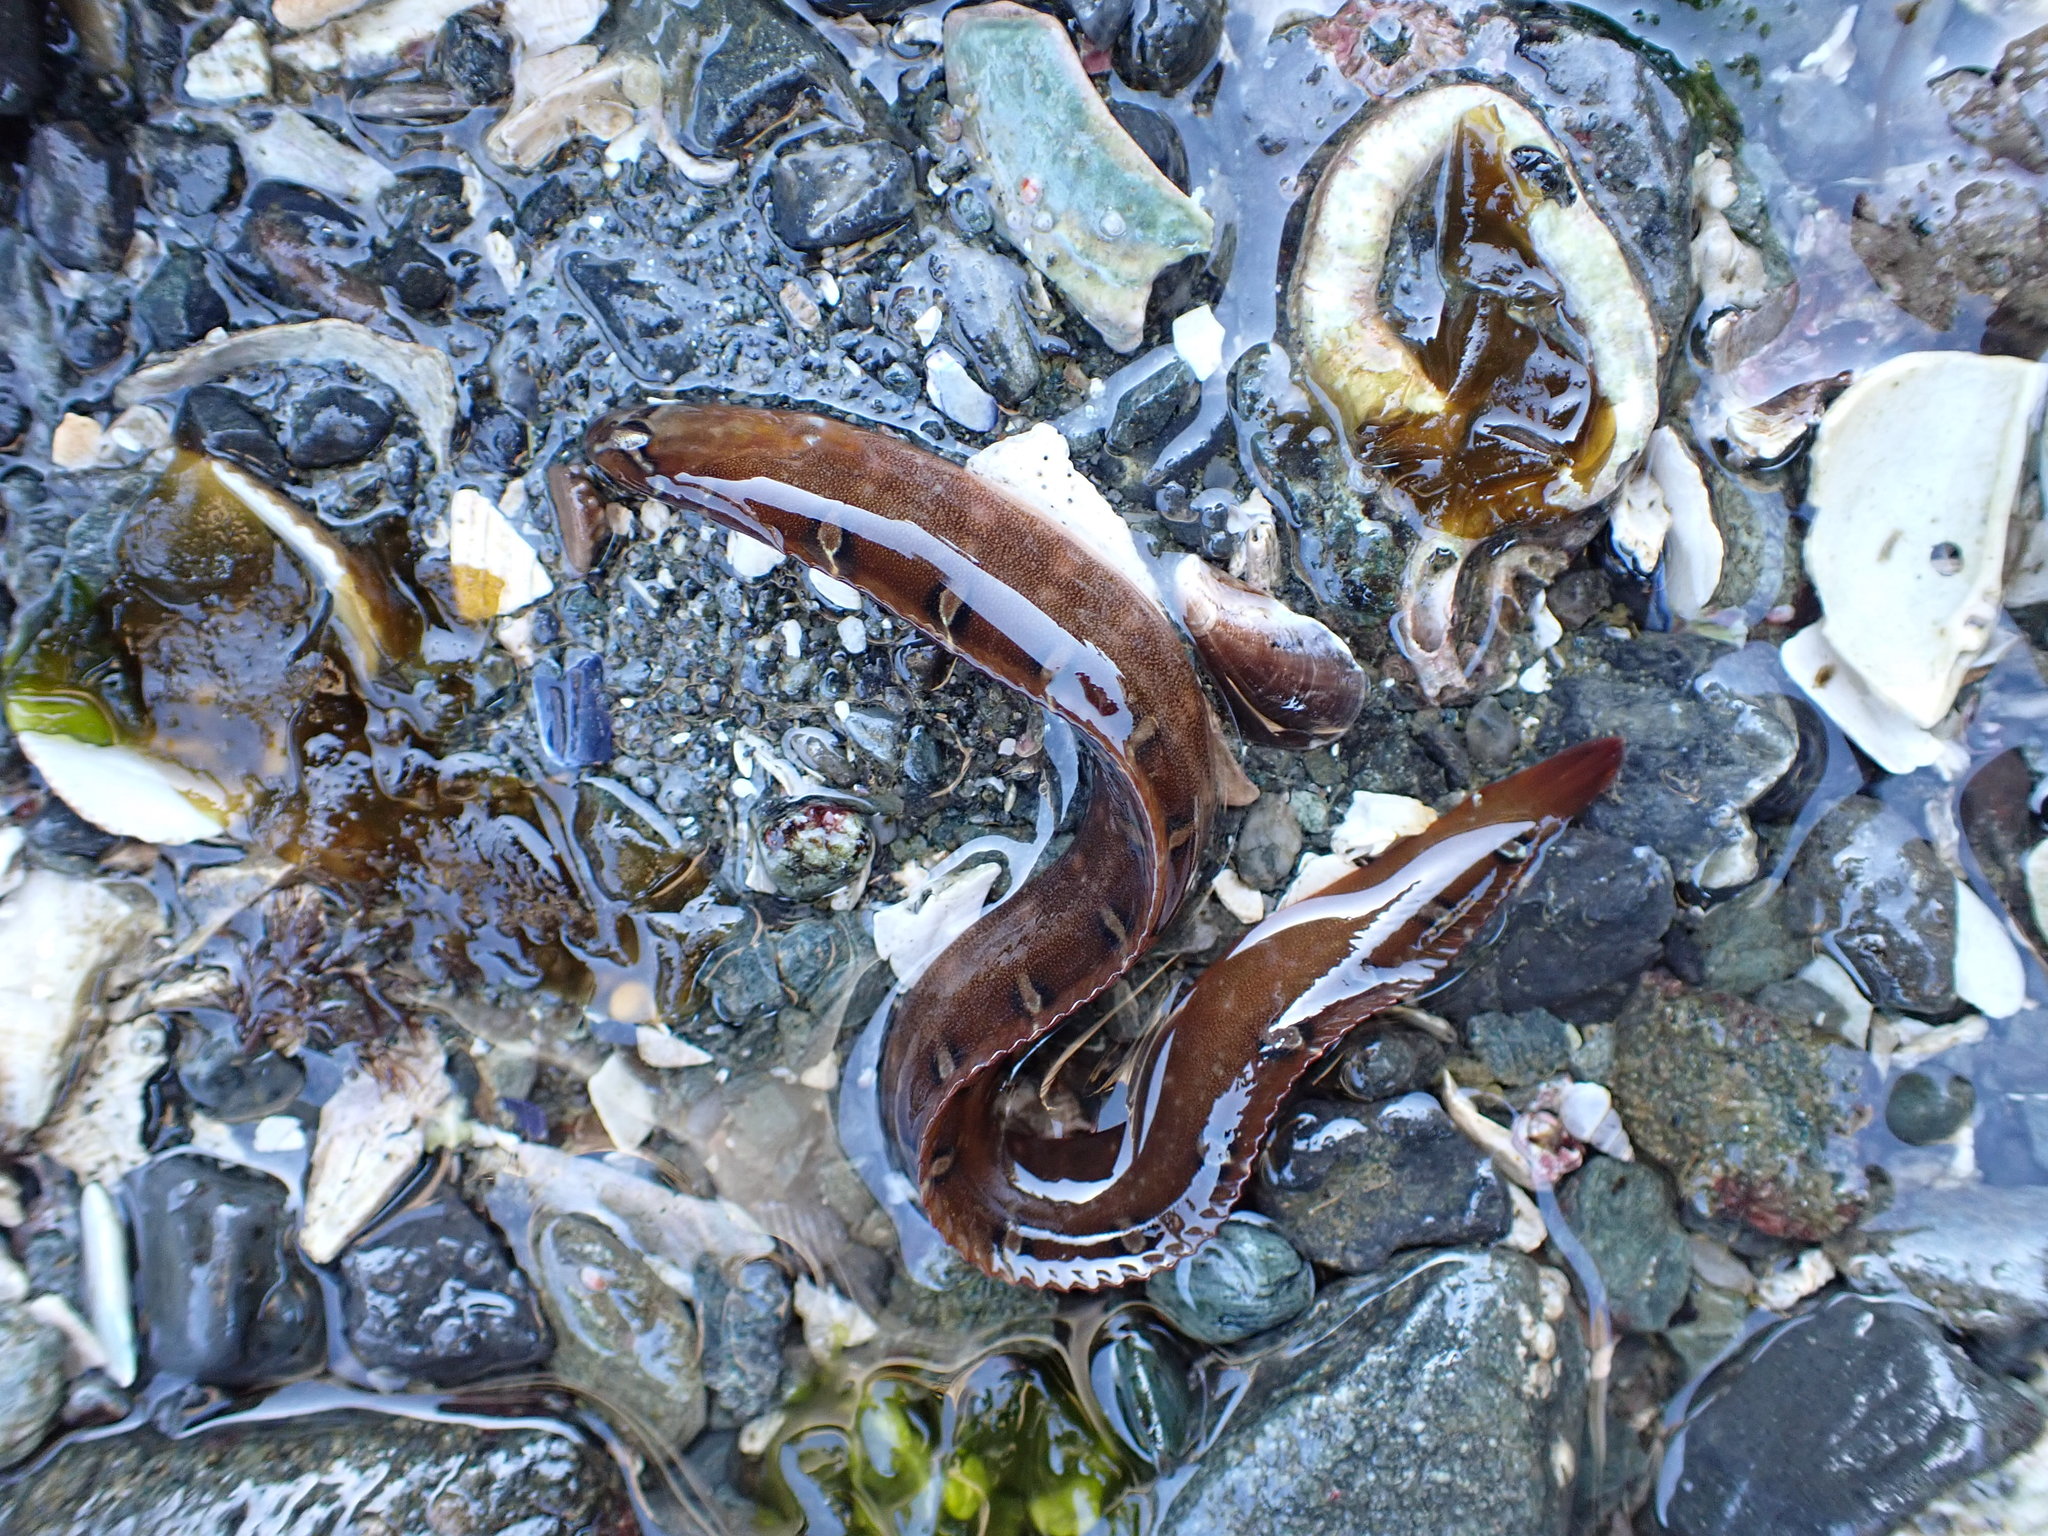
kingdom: Animalia
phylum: Chordata
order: Perciformes
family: Pholidae
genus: Pholis
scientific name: Pholis laeta
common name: Crescent gunnel
